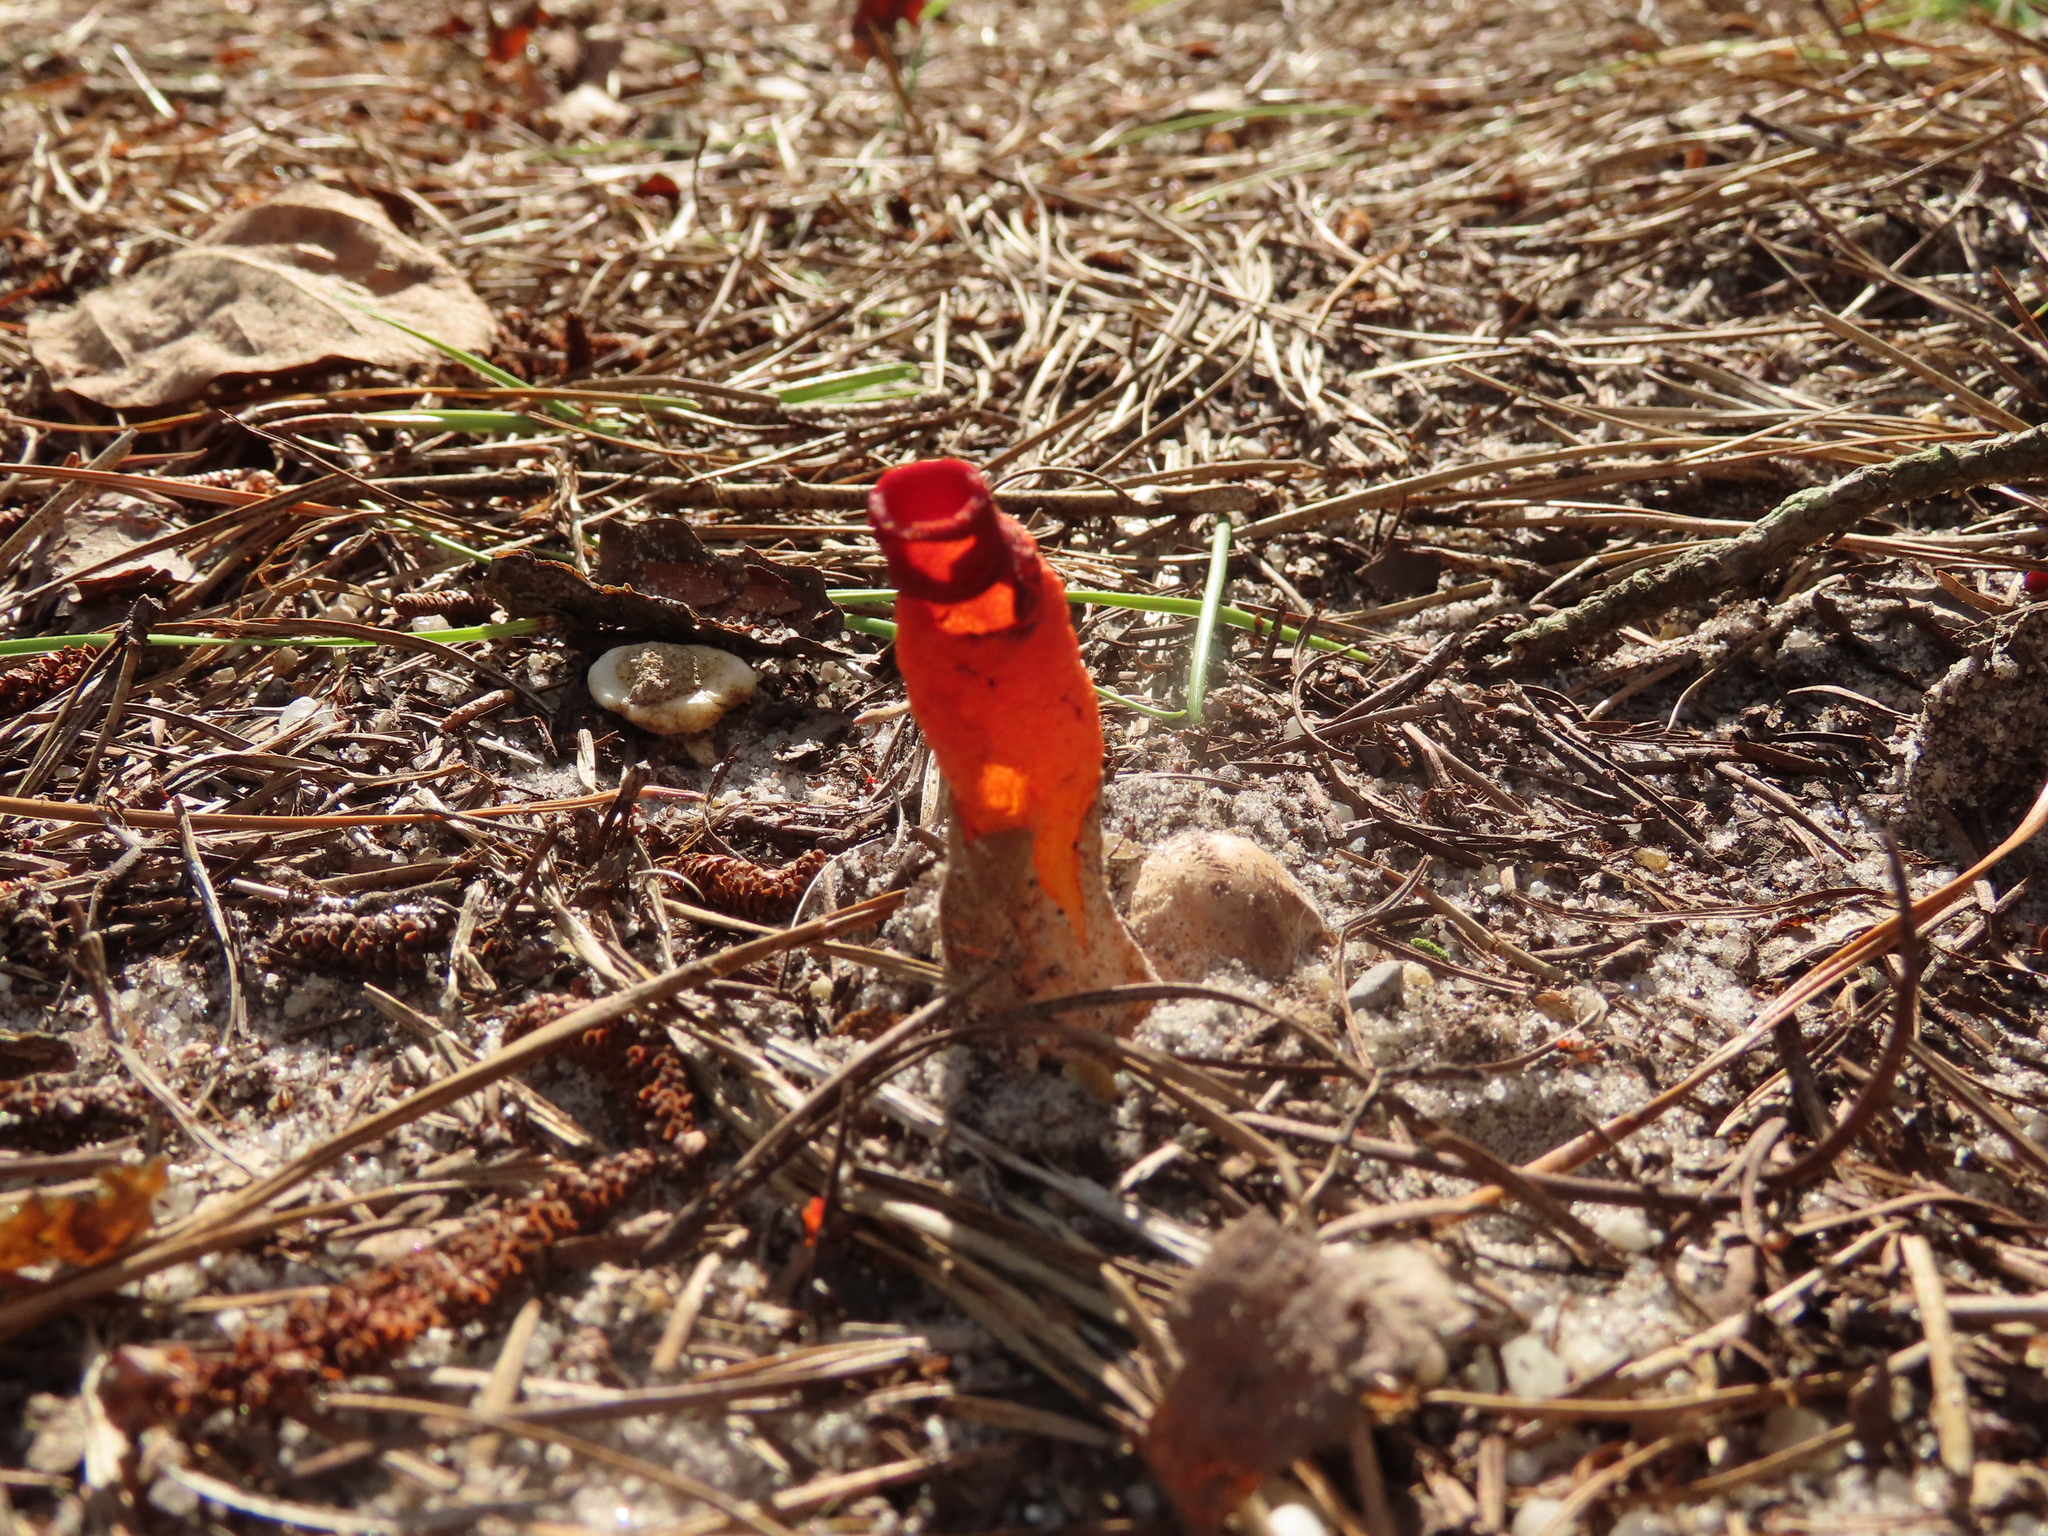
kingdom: Fungi
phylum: Basidiomycota
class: Agaricomycetes
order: Phallales
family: Phallaceae
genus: Mutinus
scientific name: Mutinus elegans
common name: Devil's dipstick
